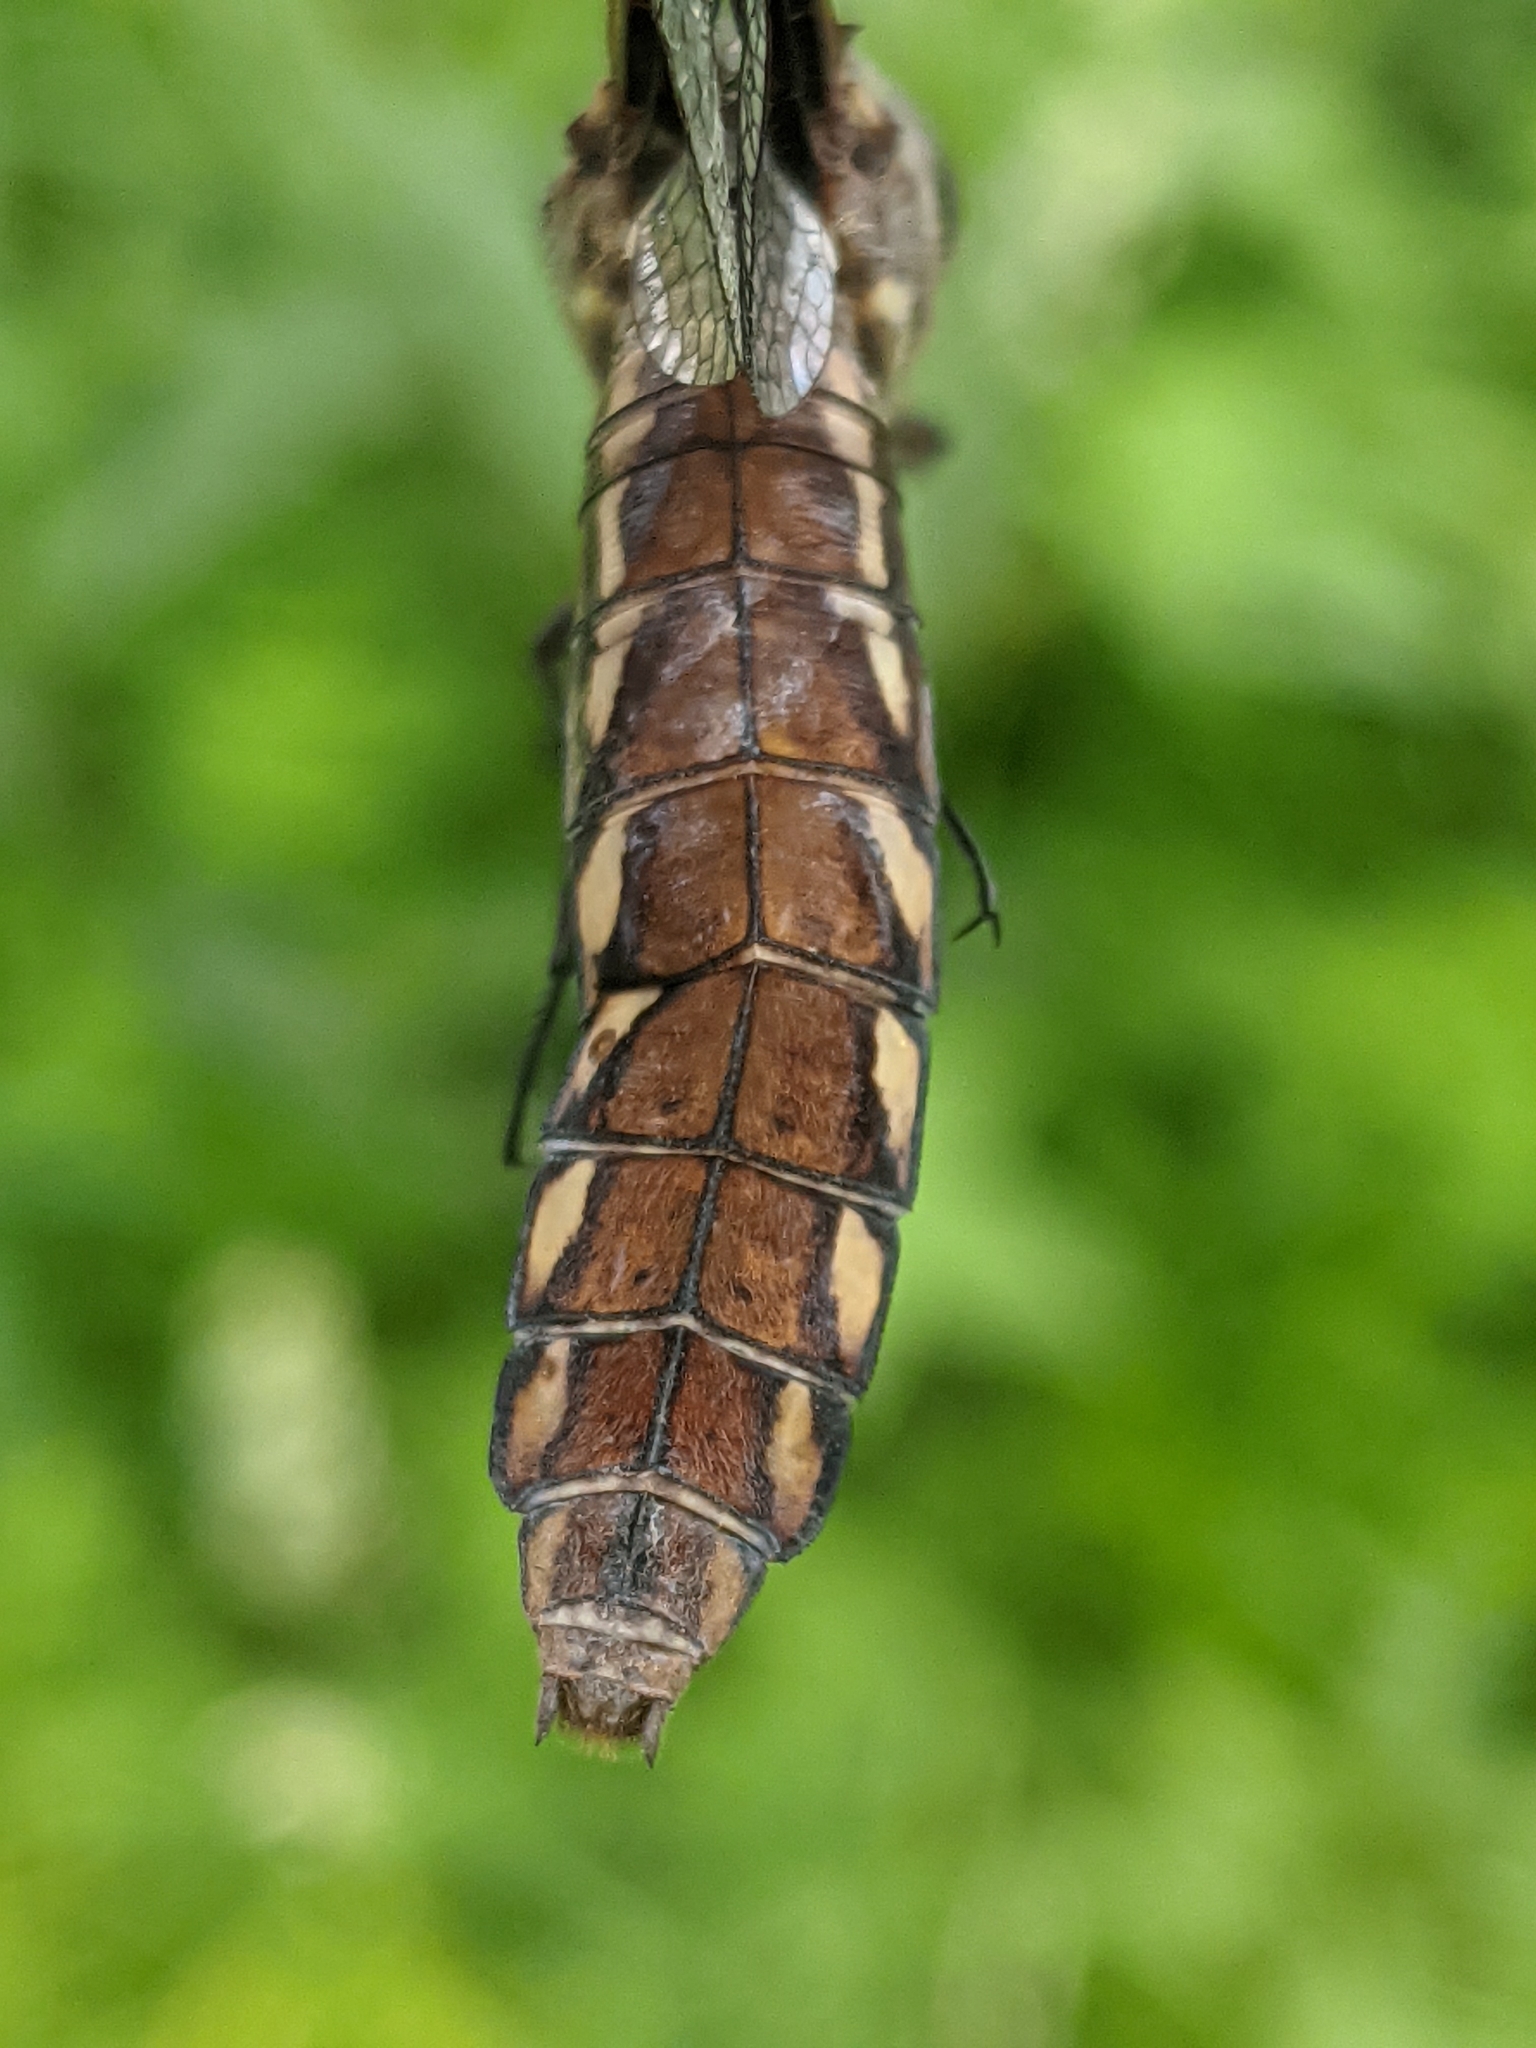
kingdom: Animalia
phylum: Arthropoda
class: Insecta
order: Odonata
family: Libellulidae
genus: Plathemis
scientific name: Plathemis lydia
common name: Common whitetail
